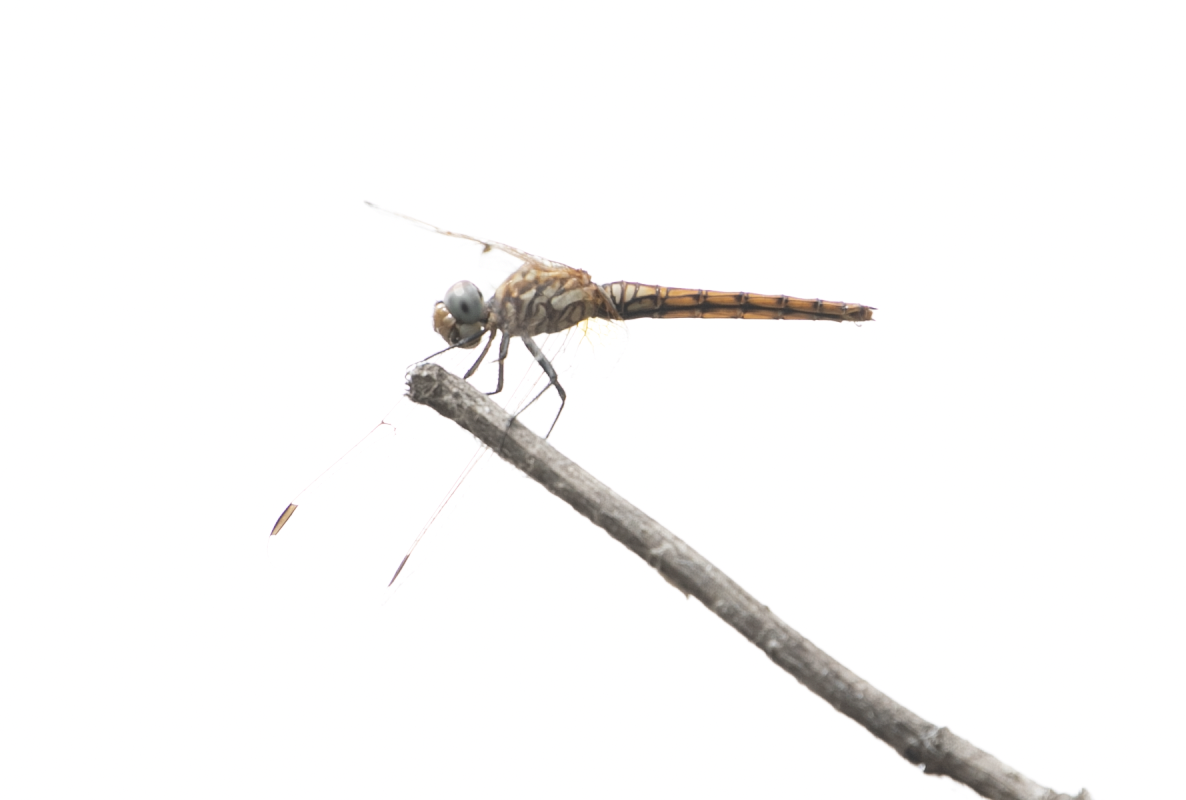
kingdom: Animalia
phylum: Arthropoda
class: Insecta
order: Odonata
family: Libellulidae
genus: Trithemis
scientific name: Trithemis annulata
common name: Violet dropwing
